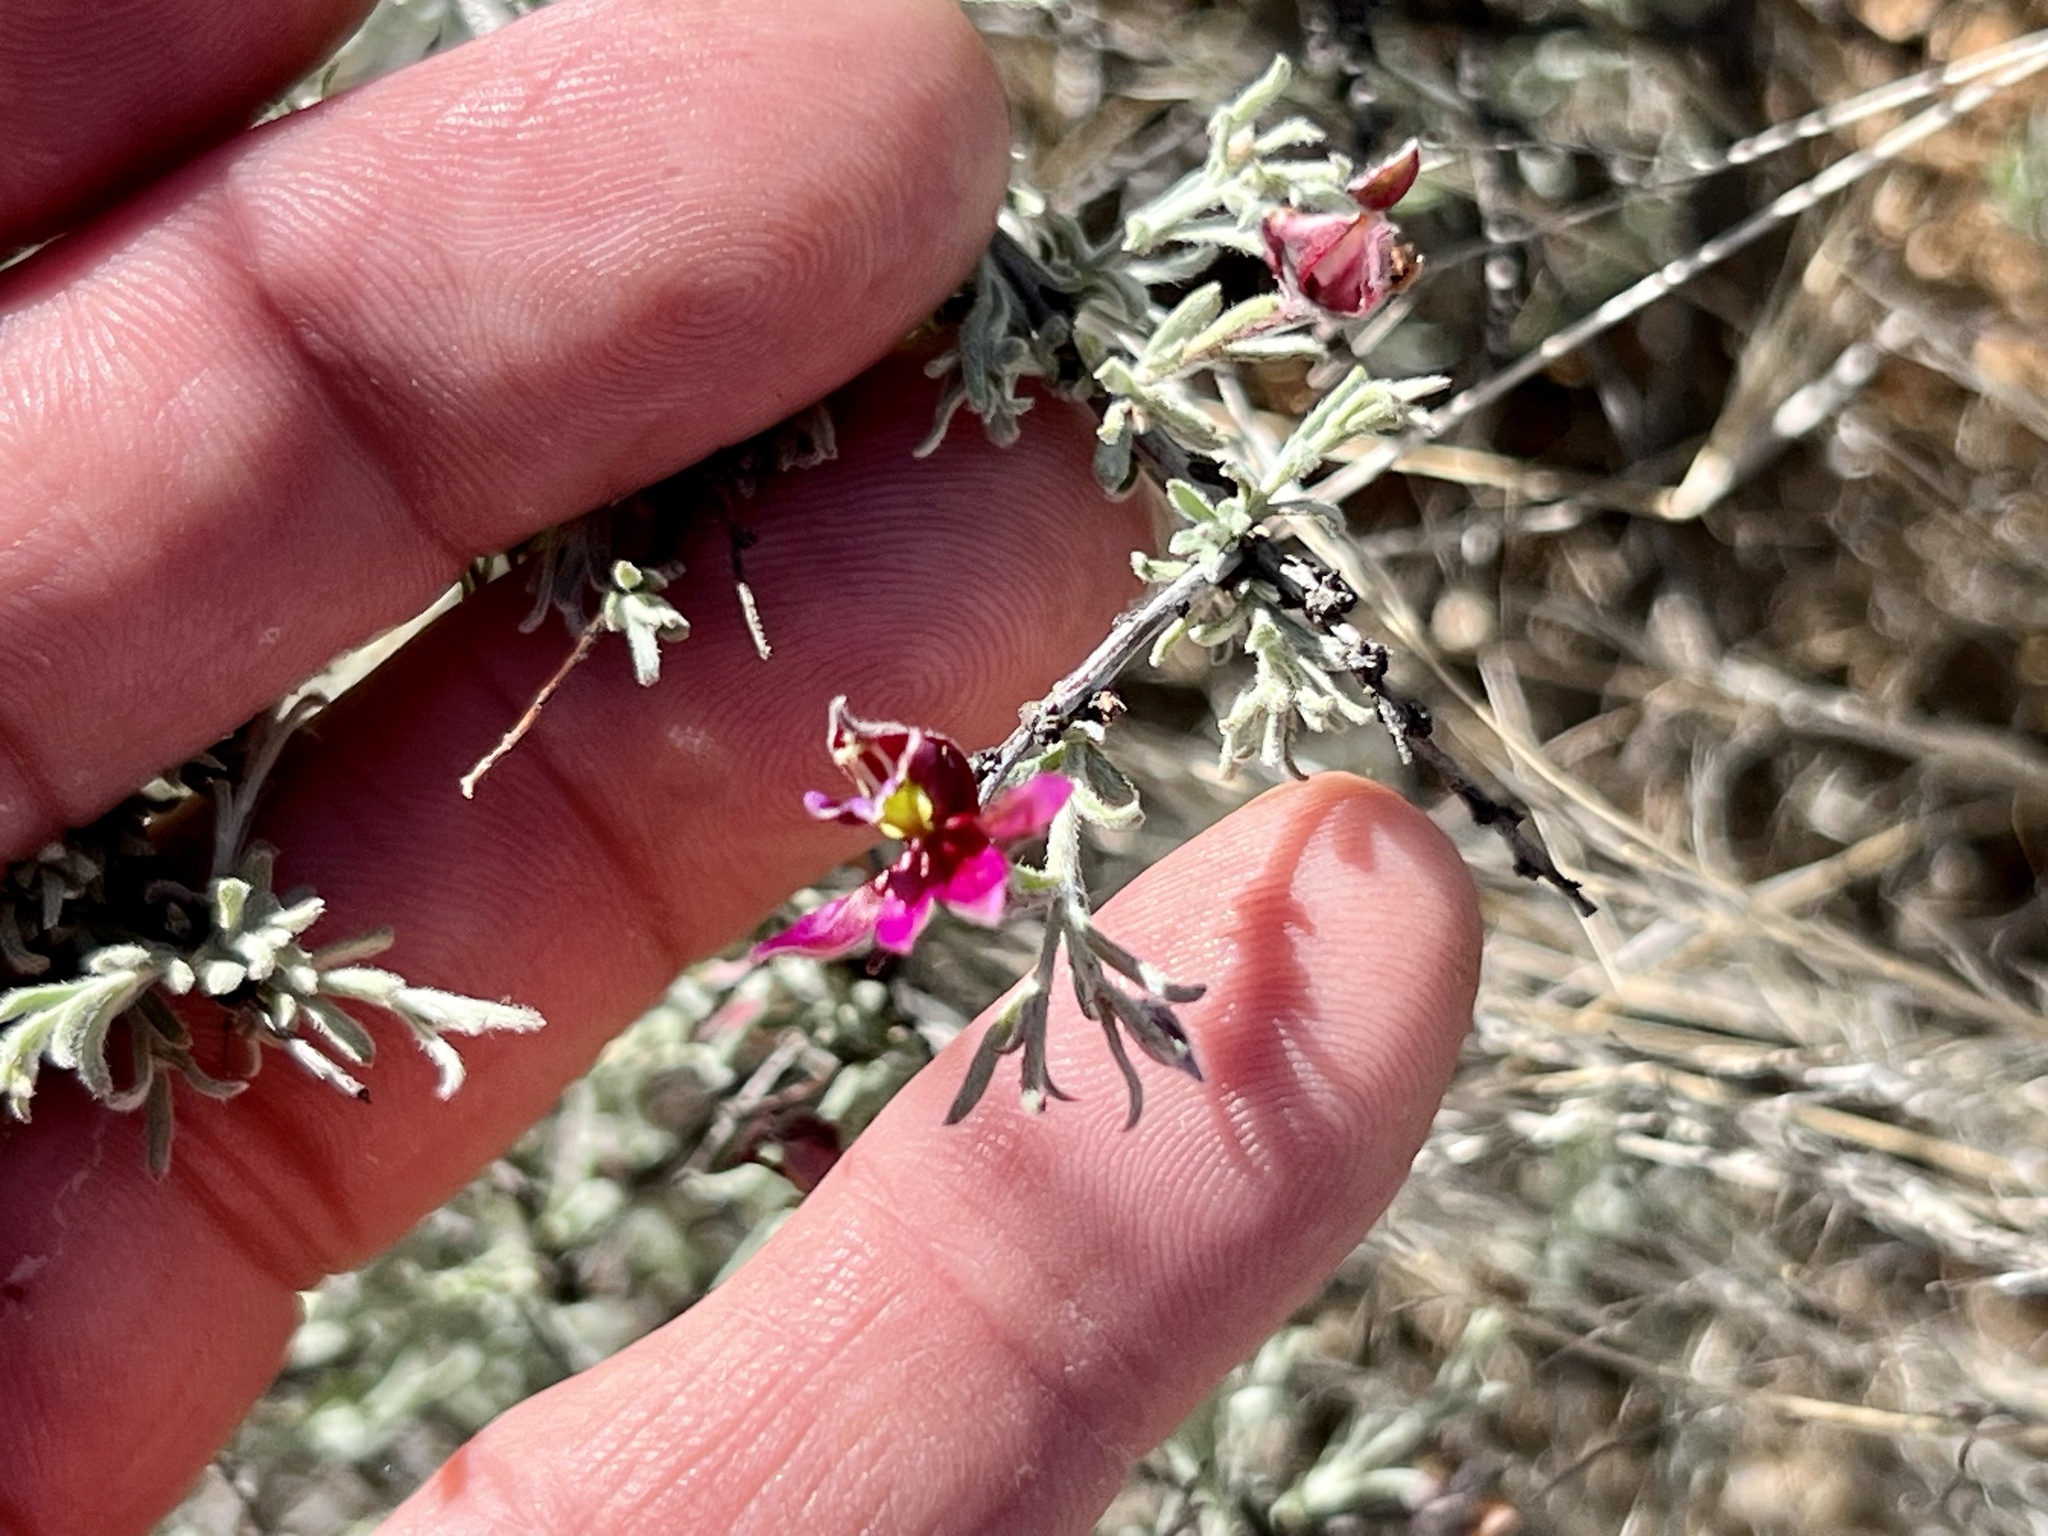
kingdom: Plantae
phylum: Tracheophyta
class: Magnoliopsida
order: Zygophyllales
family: Krameriaceae
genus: Krameria
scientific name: Krameria erecta
